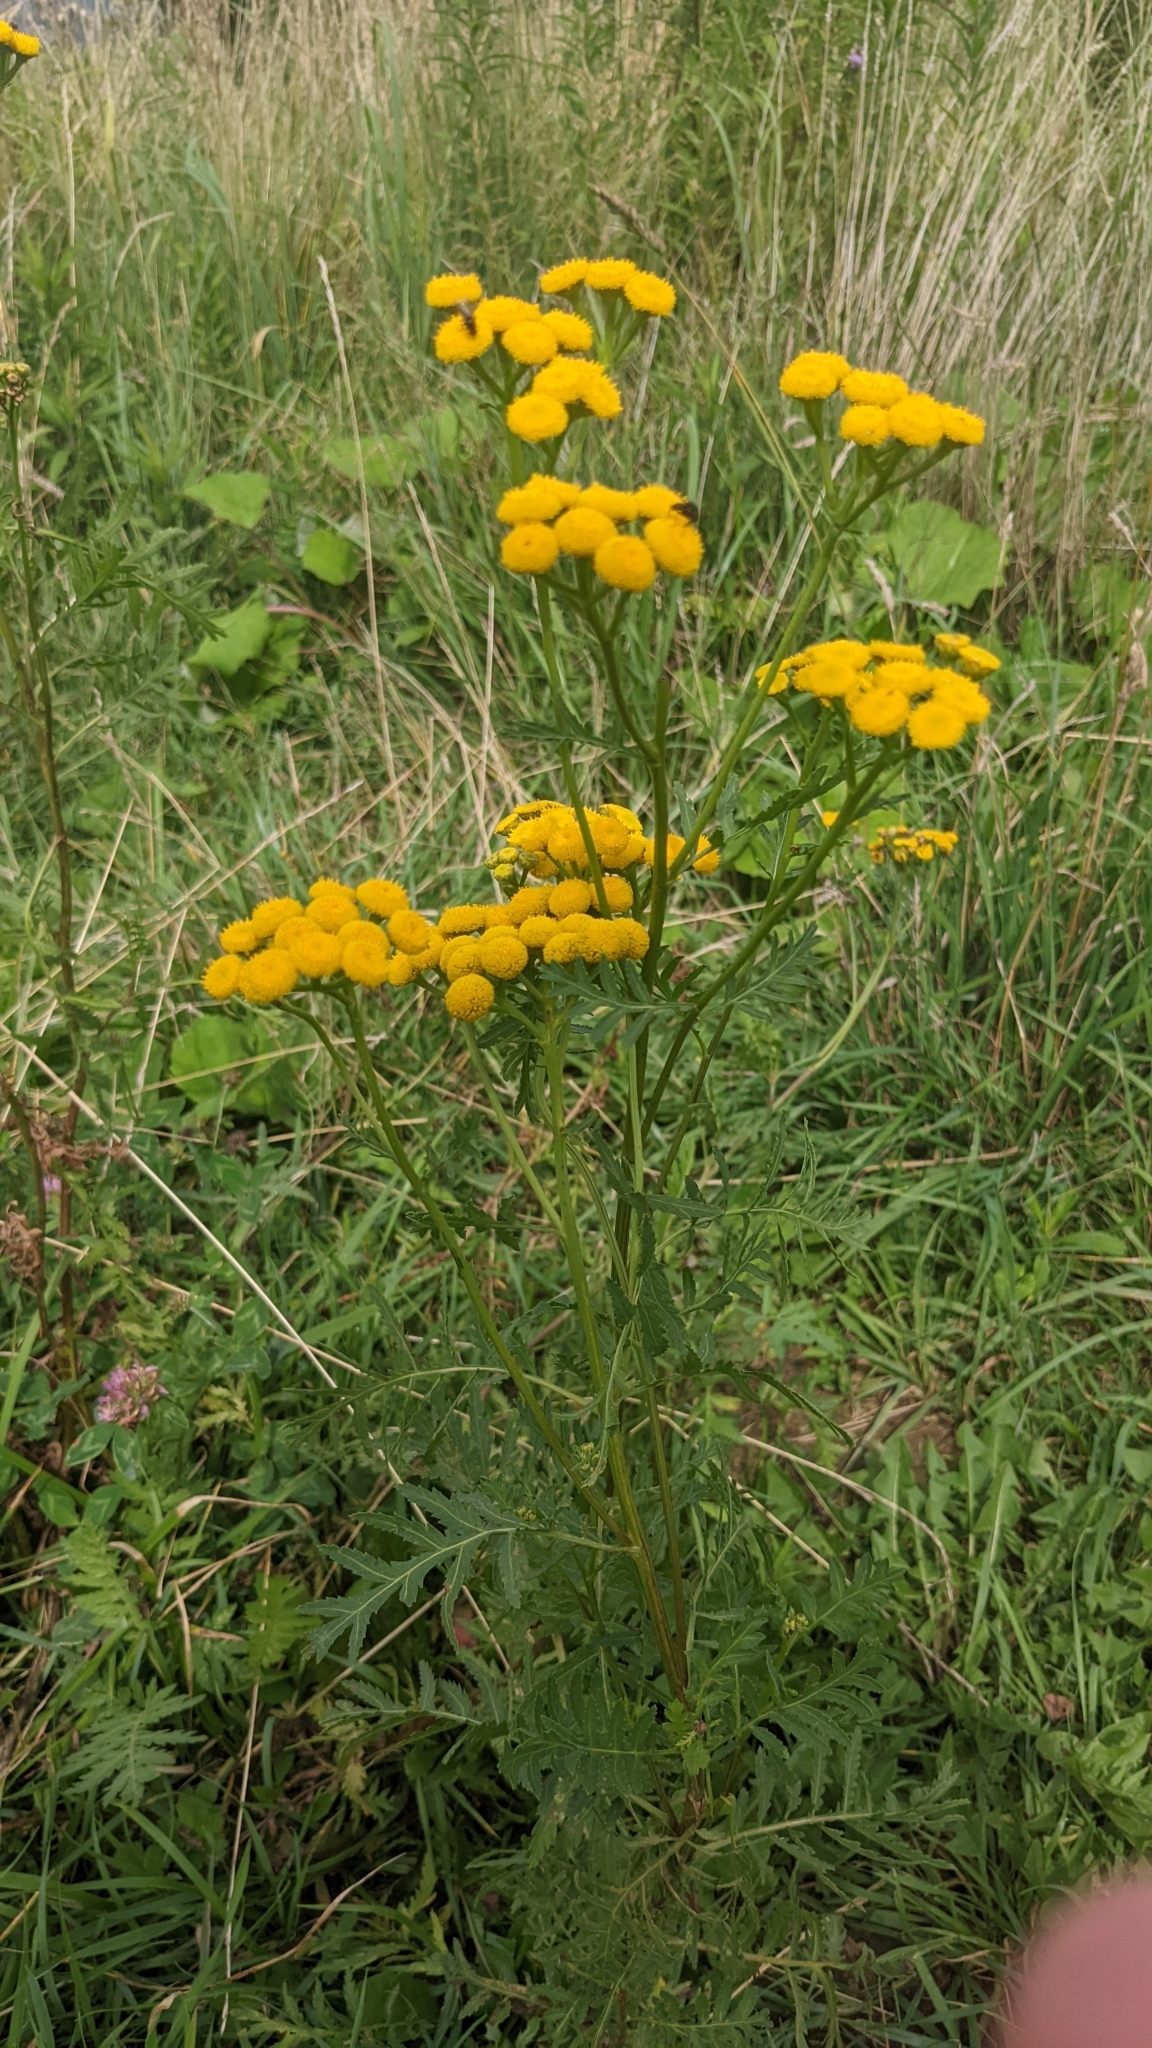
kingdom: Plantae
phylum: Tracheophyta
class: Magnoliopsida
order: Asterales
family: Asteraceae
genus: Tanacetum
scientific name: Tanacetum vulgare
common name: Common tansy
